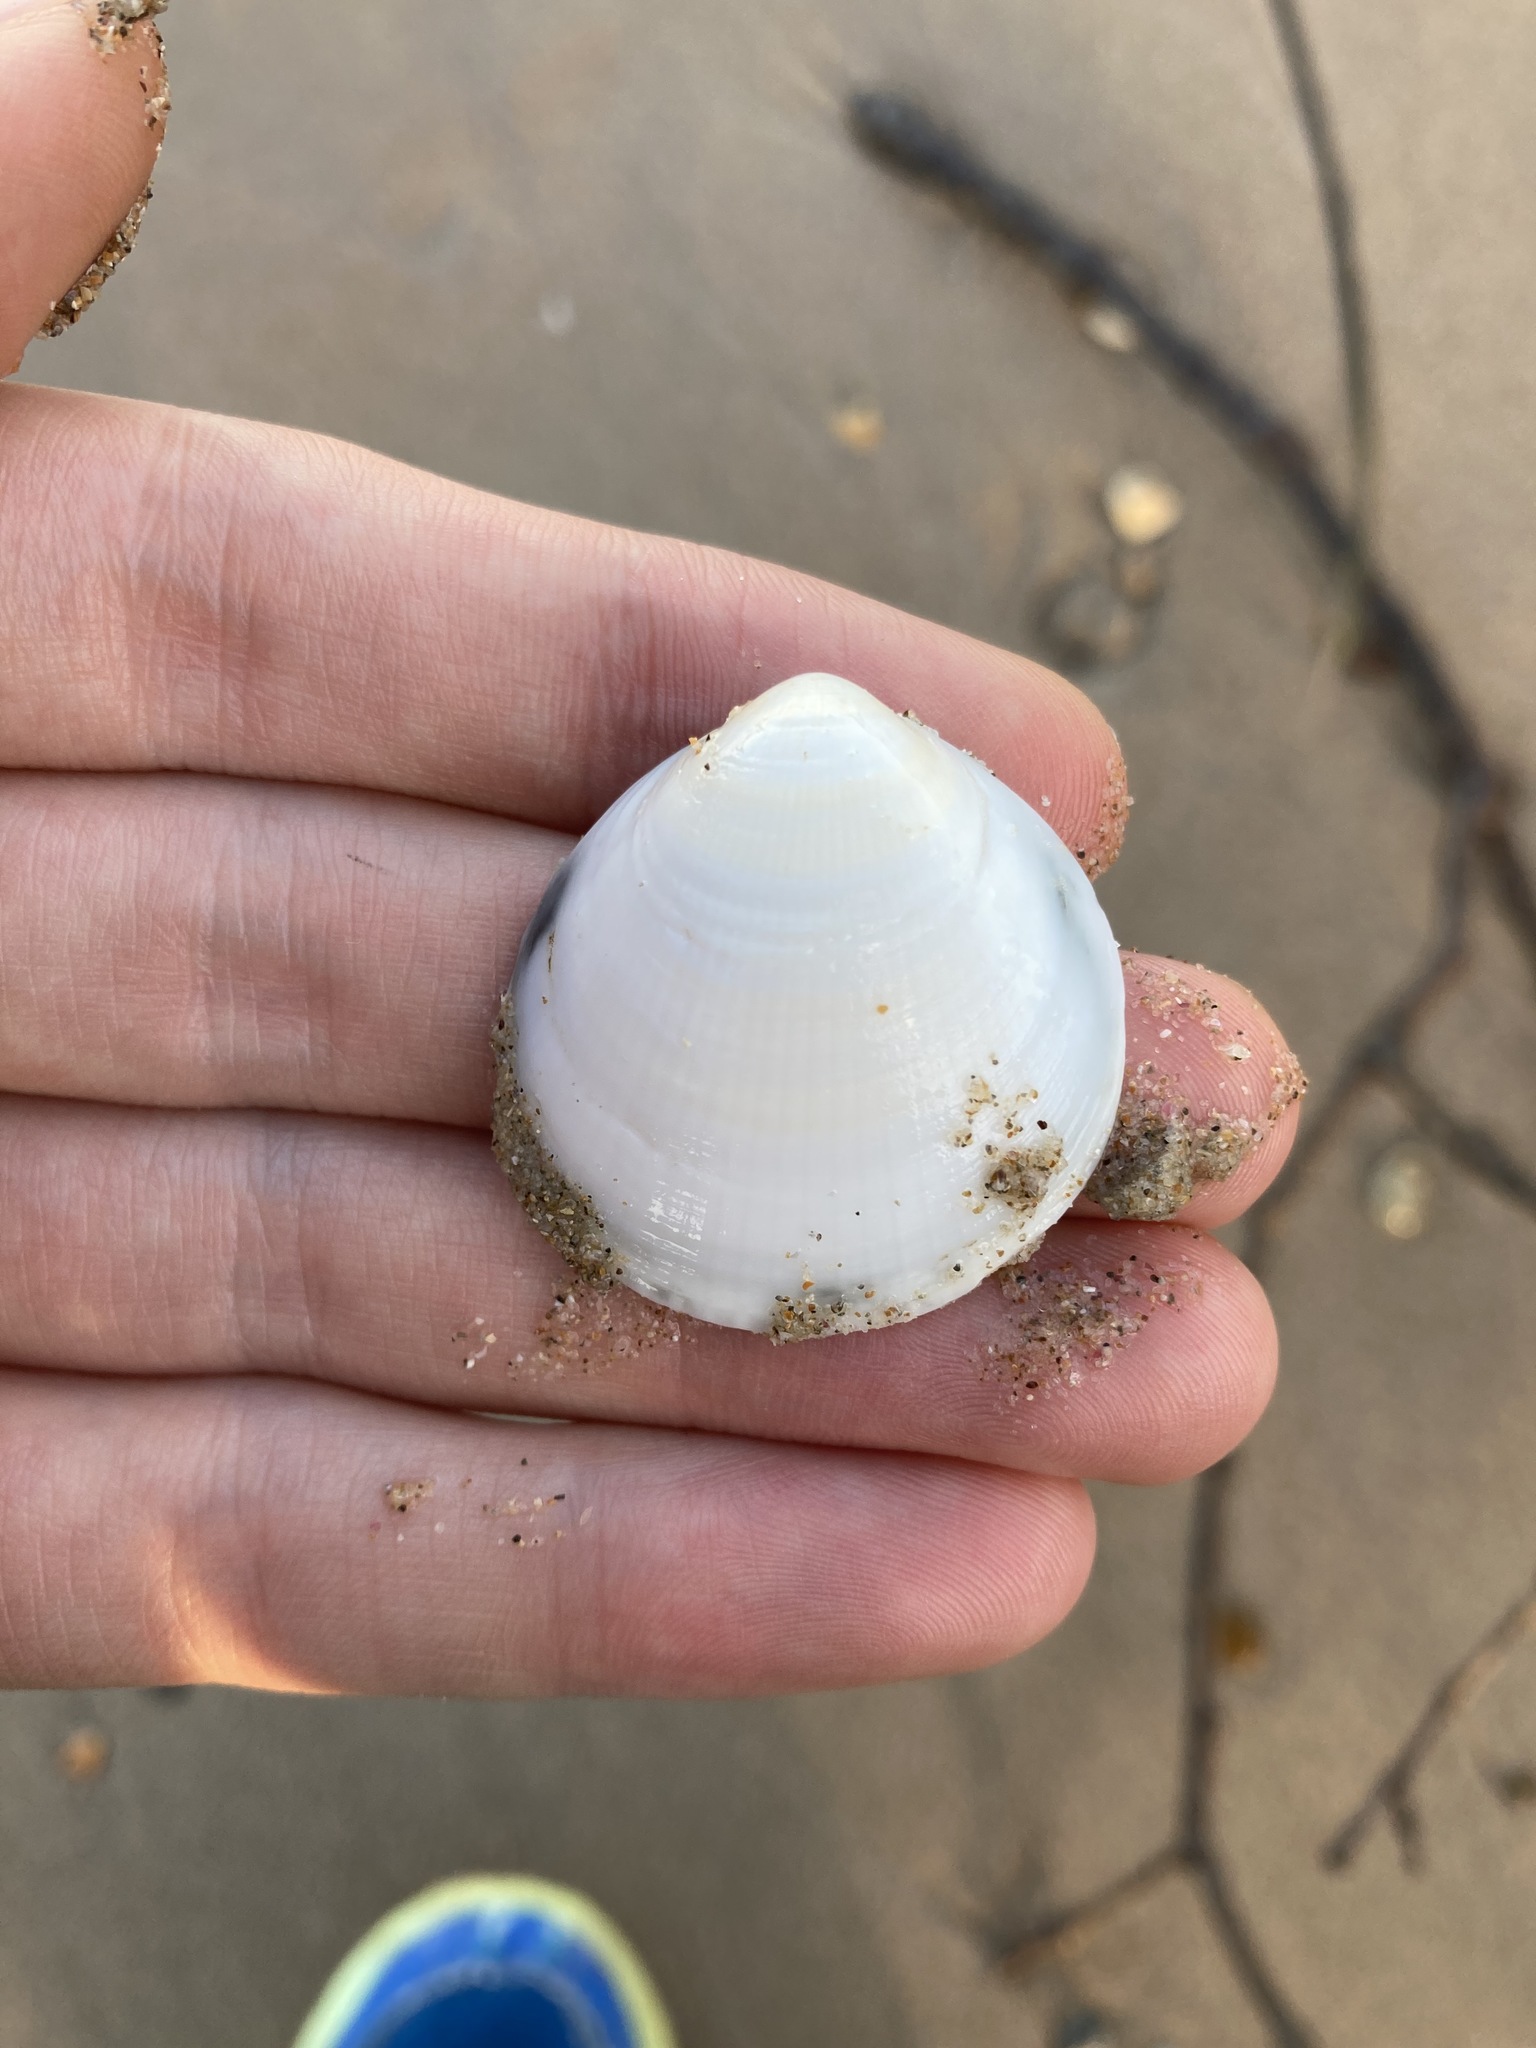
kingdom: Animalia
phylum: Mollusca
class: Bivalvia
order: Arcida
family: Glycymerididae
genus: Glycymeris
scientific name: Glycymeris holoserica
